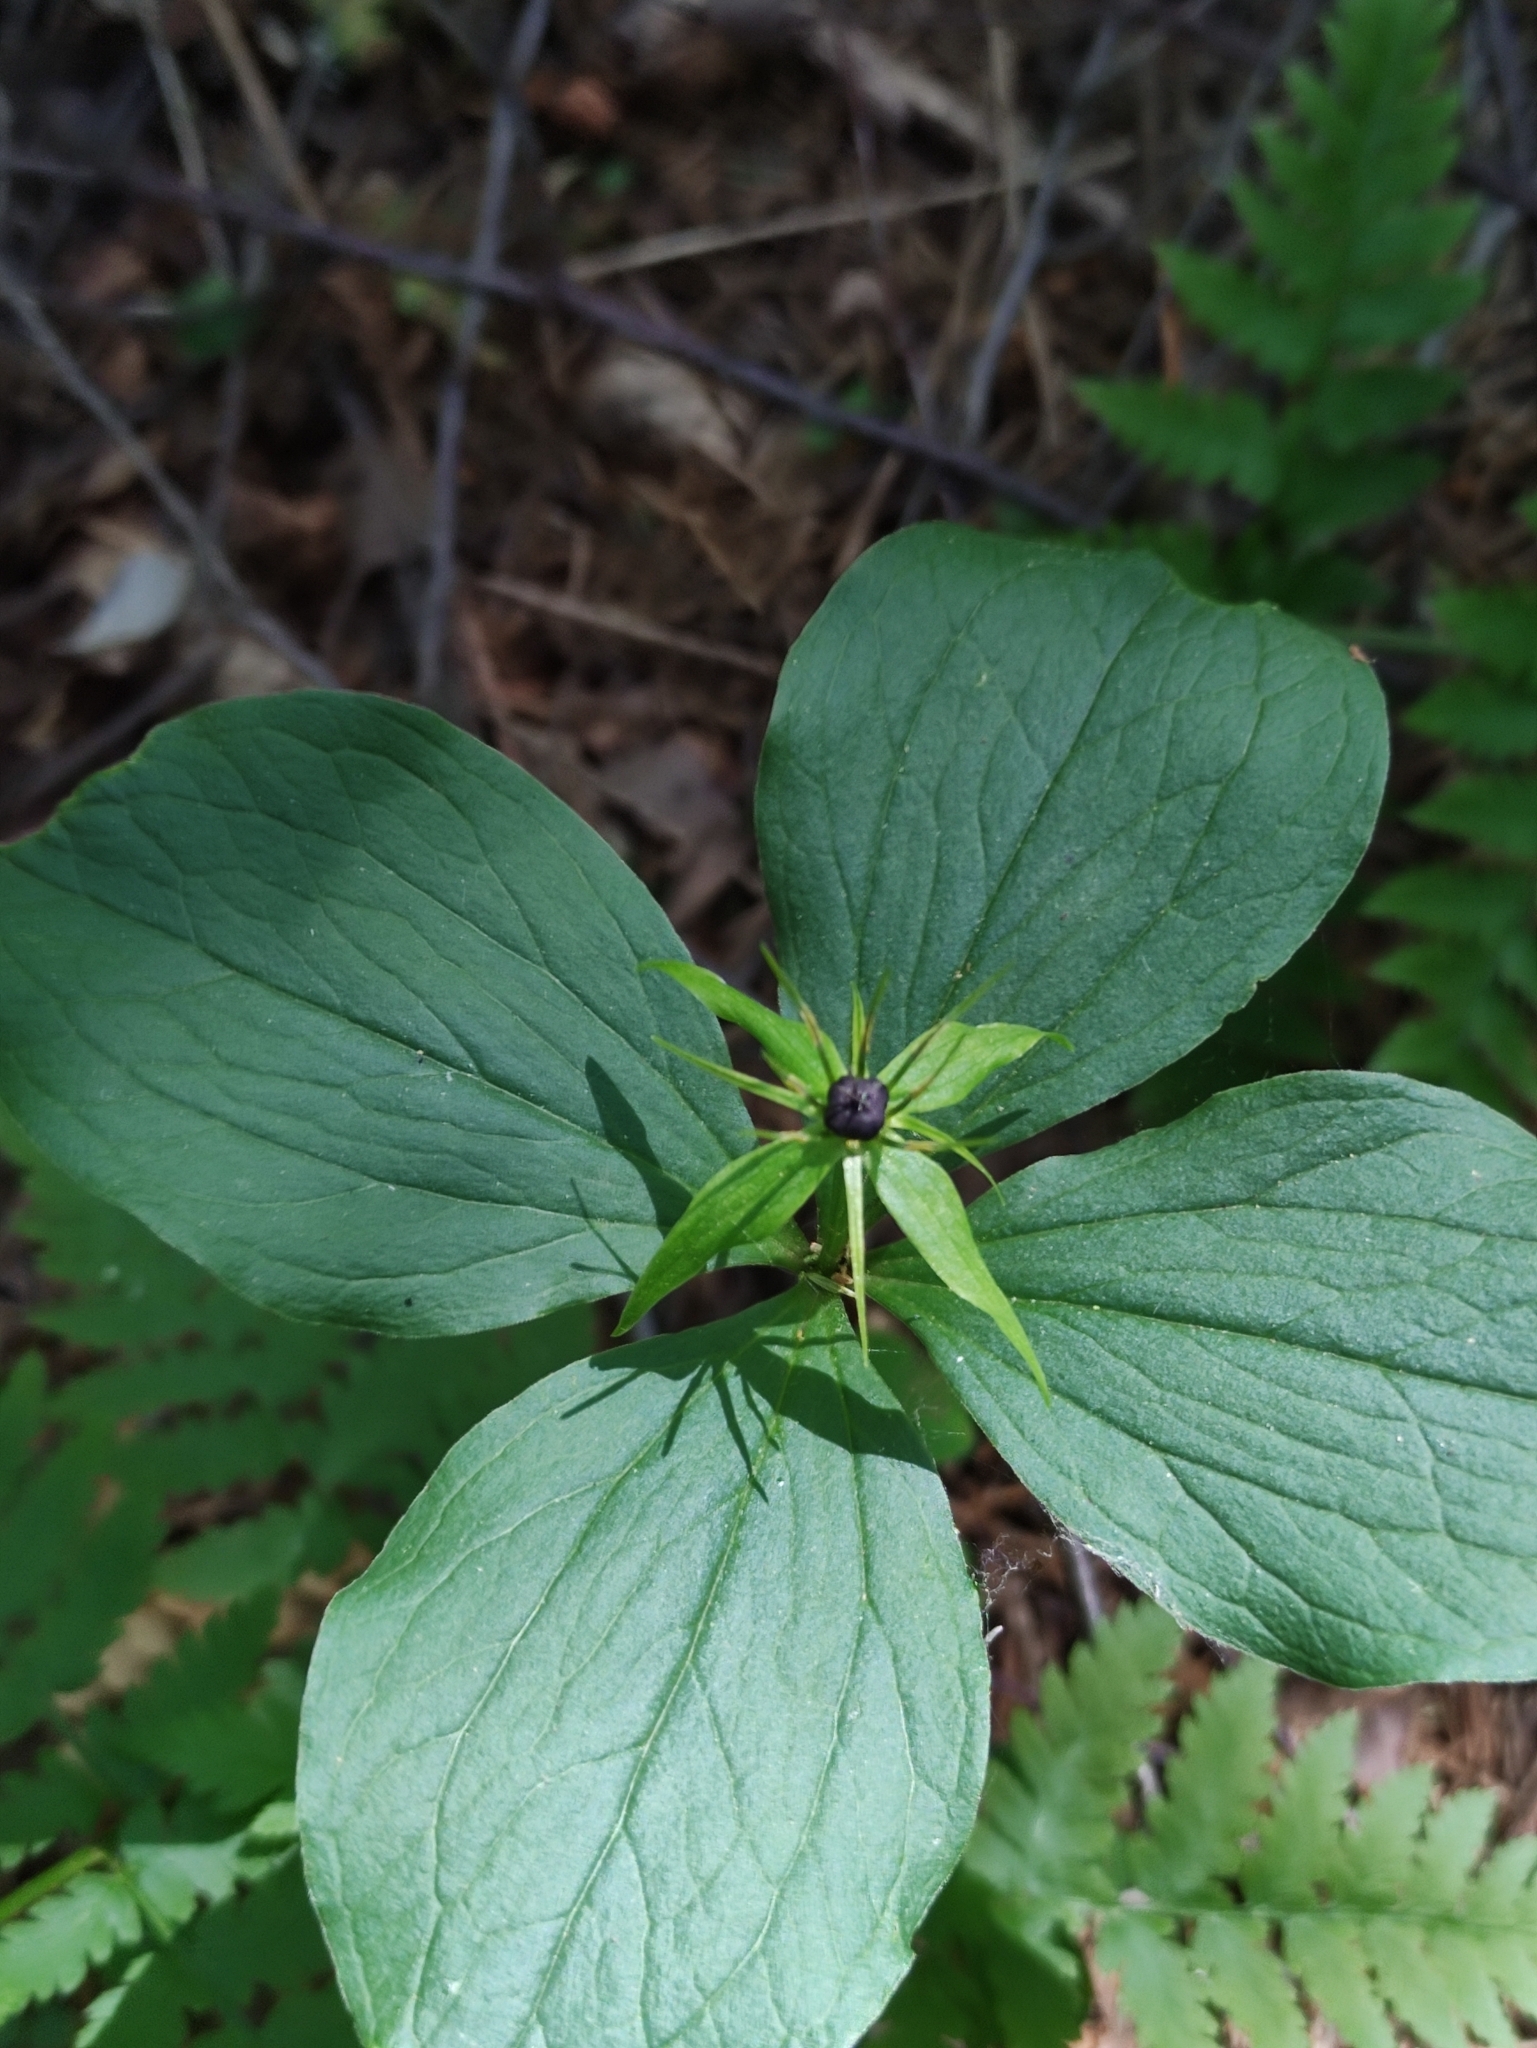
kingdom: Plantae
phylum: Tracheophyta
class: Liliopsida
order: Liliales
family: Melanthiaceae
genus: Paris
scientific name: Paris quadrifolia
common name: Herb-paris
